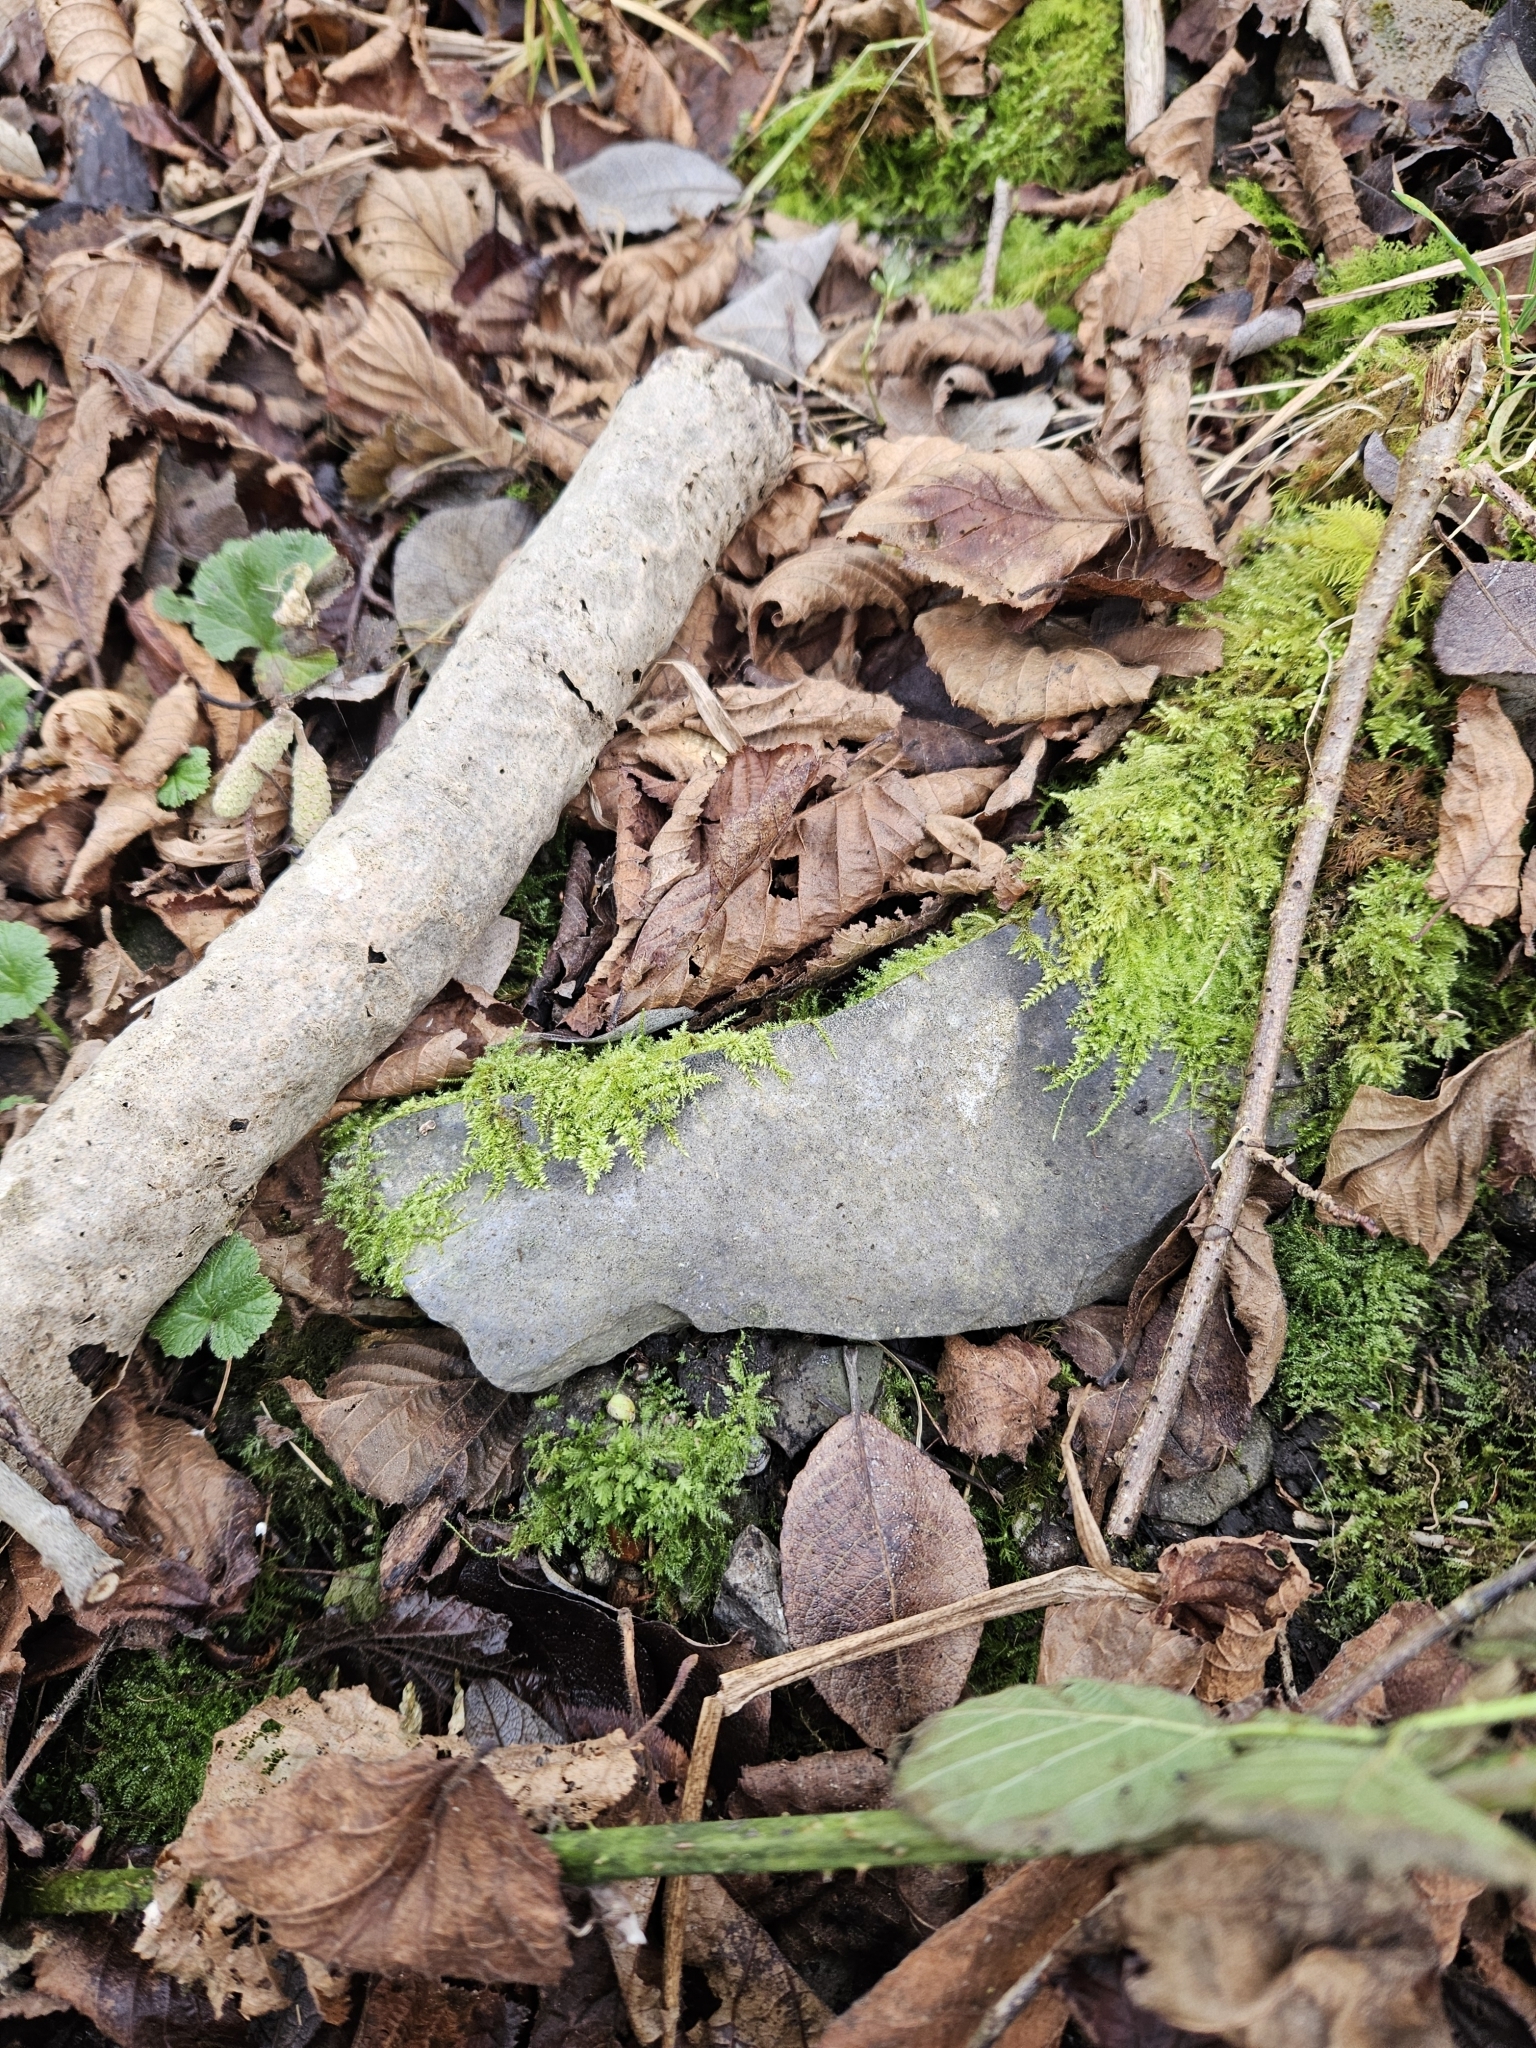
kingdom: Plantae
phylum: Bryophyta
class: Bryopsida
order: Hypnales
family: Brachytheciaceae
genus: Oxyrrhynchium
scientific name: Oxyrrhynchium hians
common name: Spreading beaked moss
